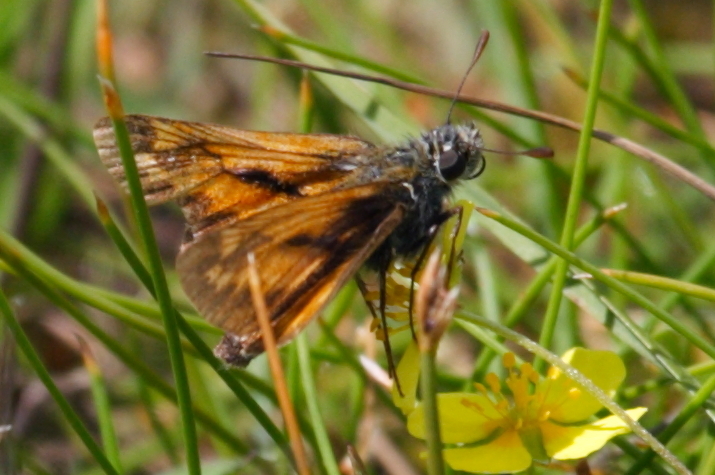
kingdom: Animalia
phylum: Arthropoda
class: Insecta
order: Lepidoptera
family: Hesperiidae
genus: Ochlodes
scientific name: Ochlodes venata
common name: Large skipper
